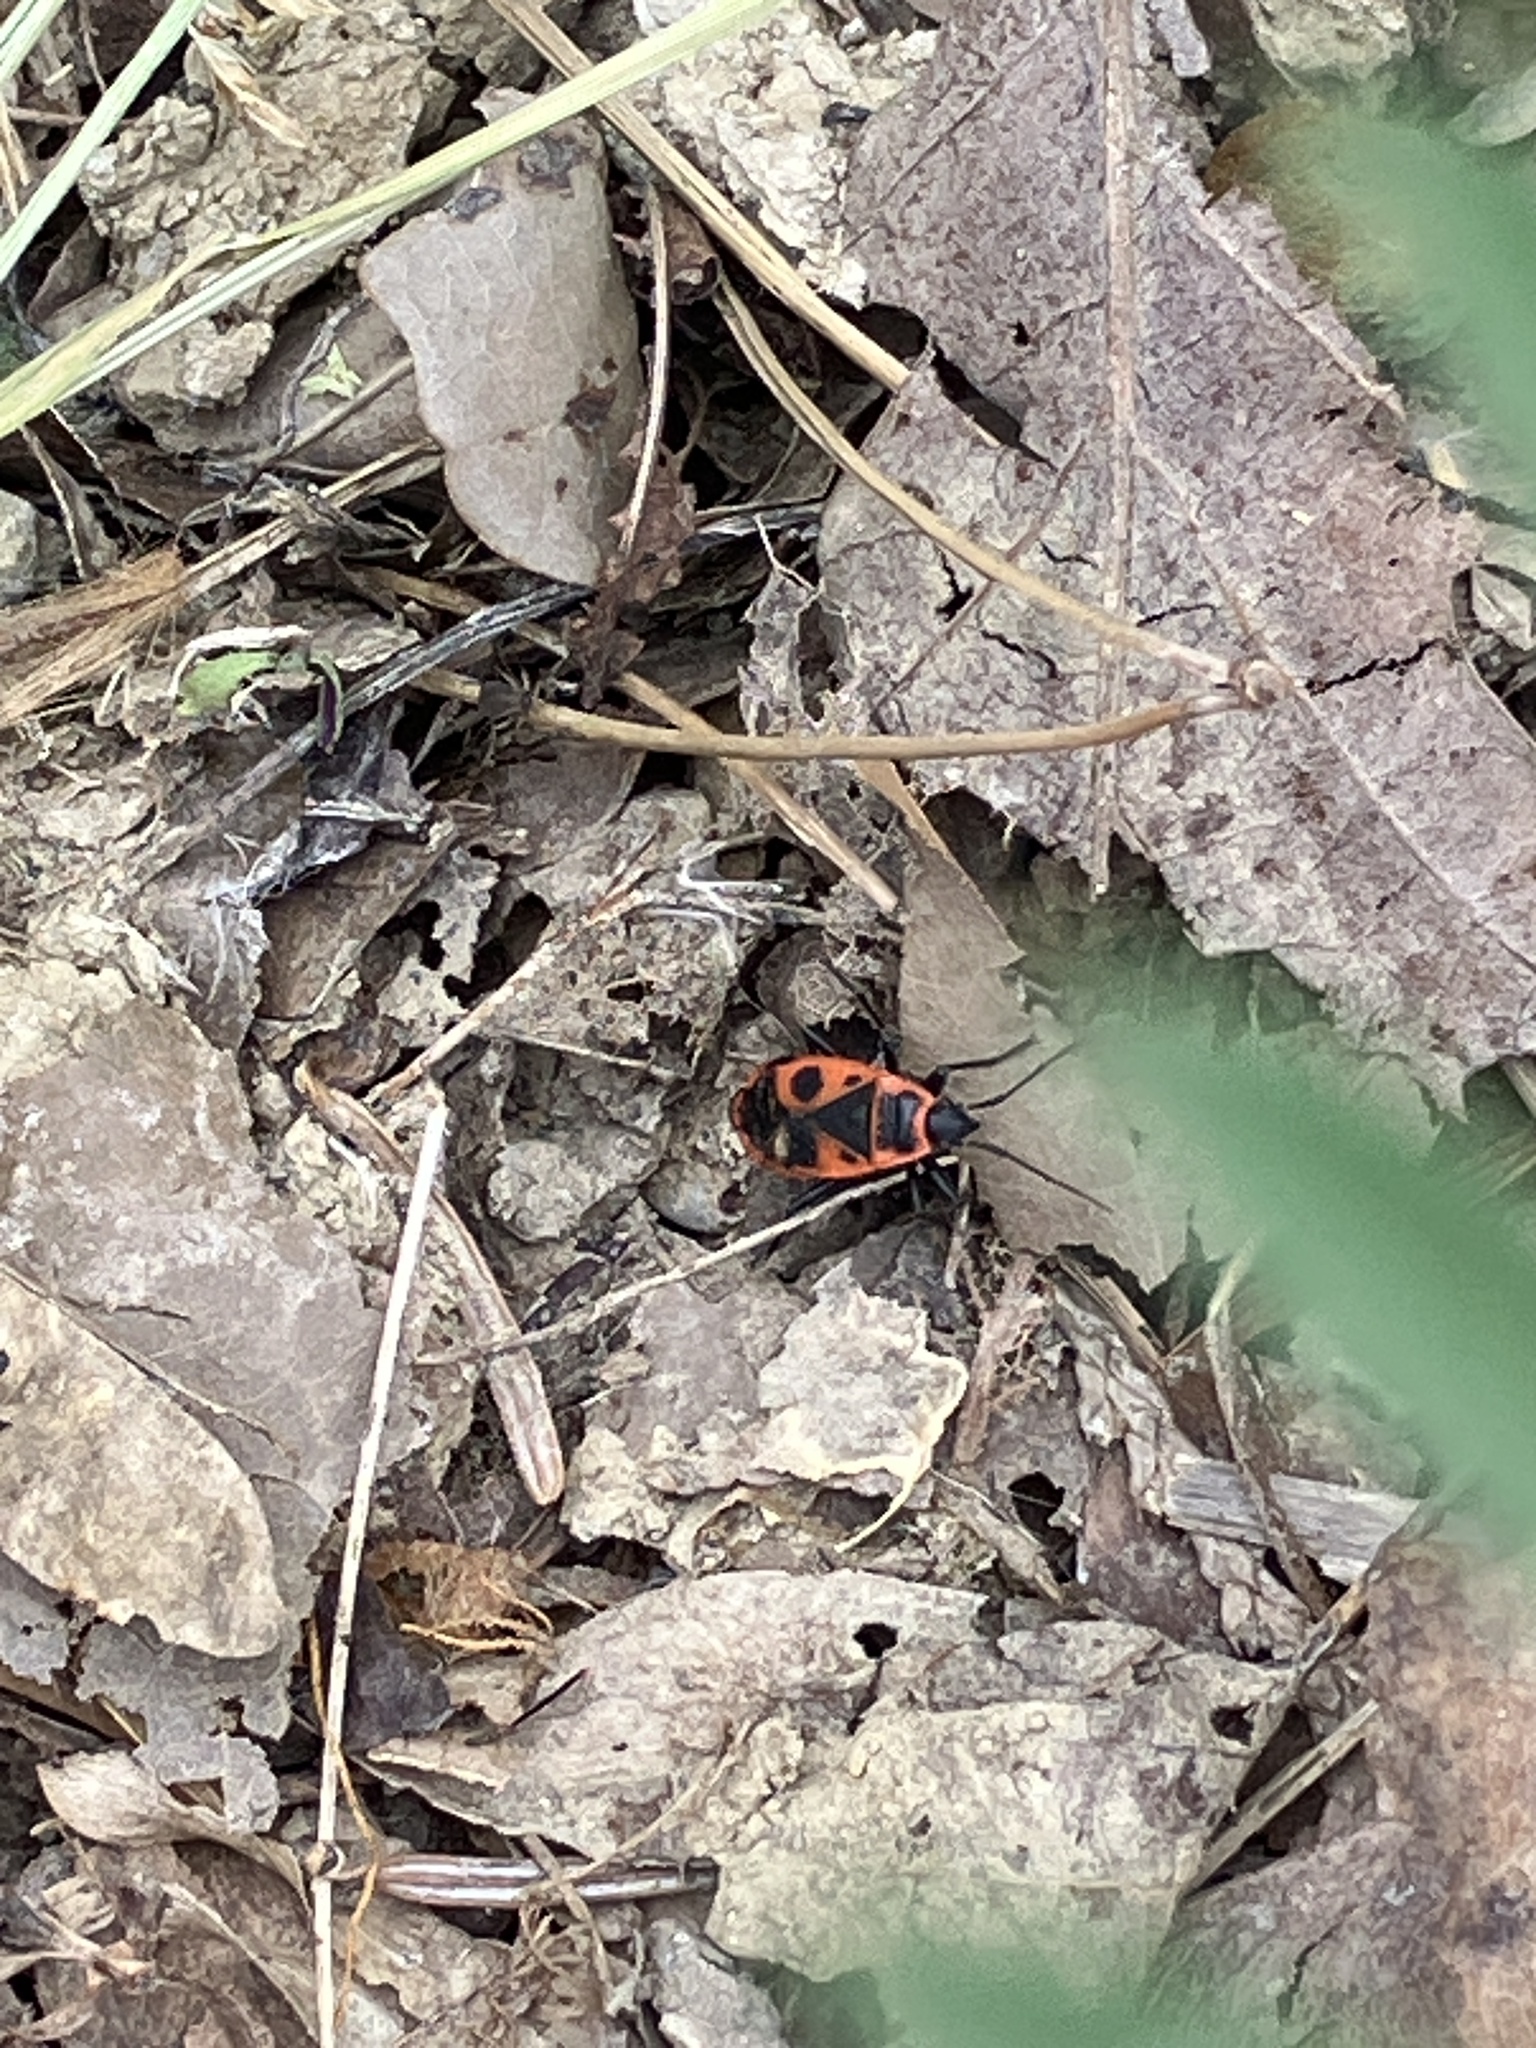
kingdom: Animalia
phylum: Arthropoda
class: Insecta
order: Hemiptera
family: Pyrrhocoridae
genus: Pyrrhocoris
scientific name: Pyrrhocoris apterus
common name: Firebug
